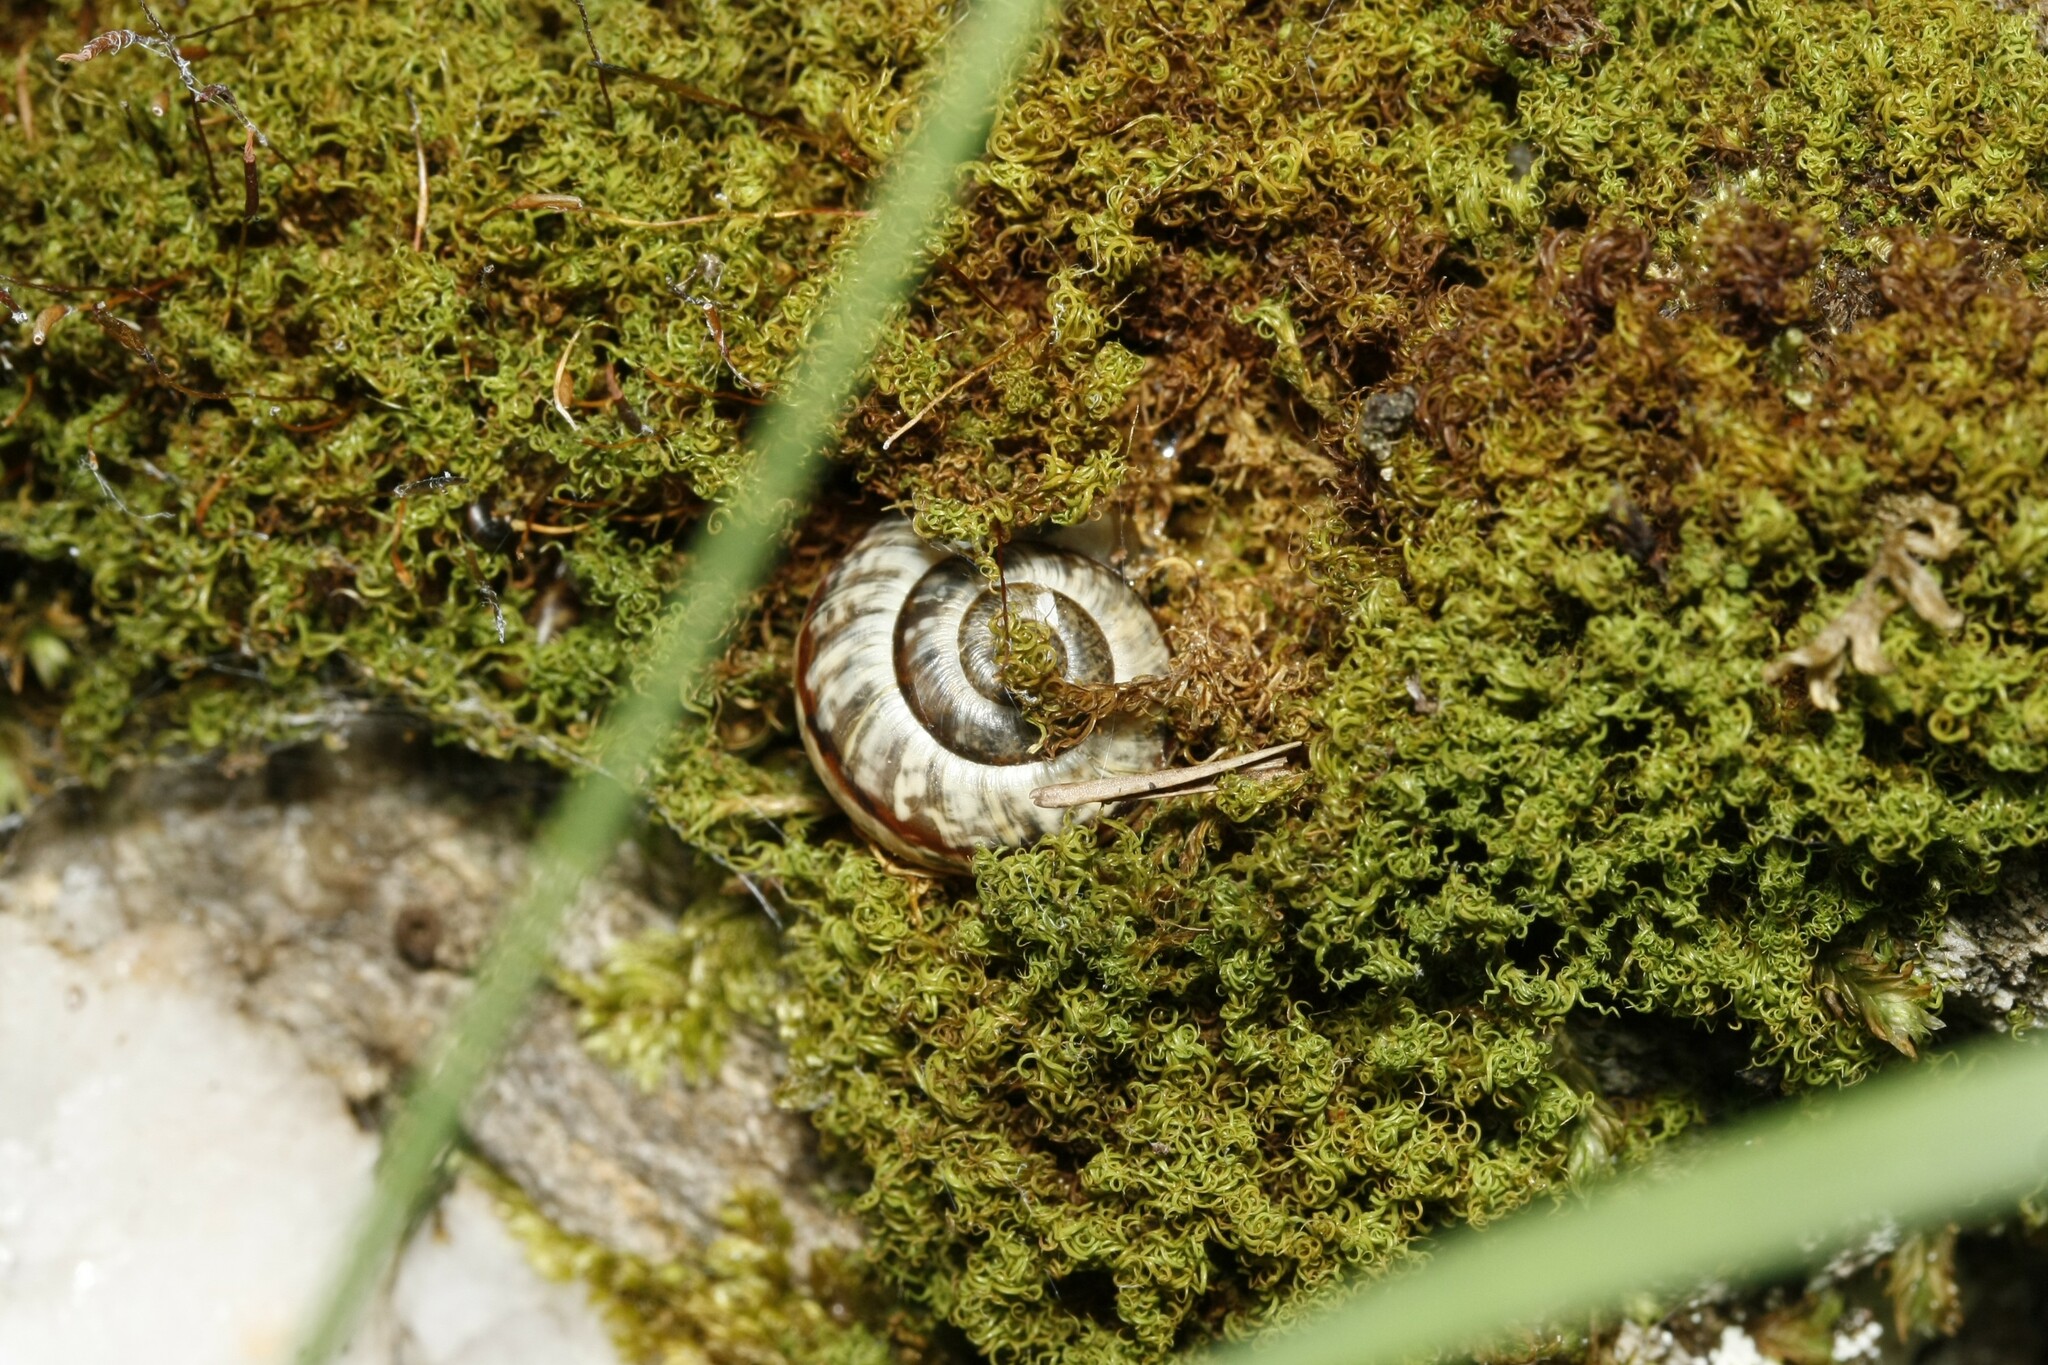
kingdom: Animalia
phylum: Mollusca
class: Gastropoda
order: Stylommatophora
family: Helicidae
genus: Arianta
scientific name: Arianta arbustorum
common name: Copse snail
